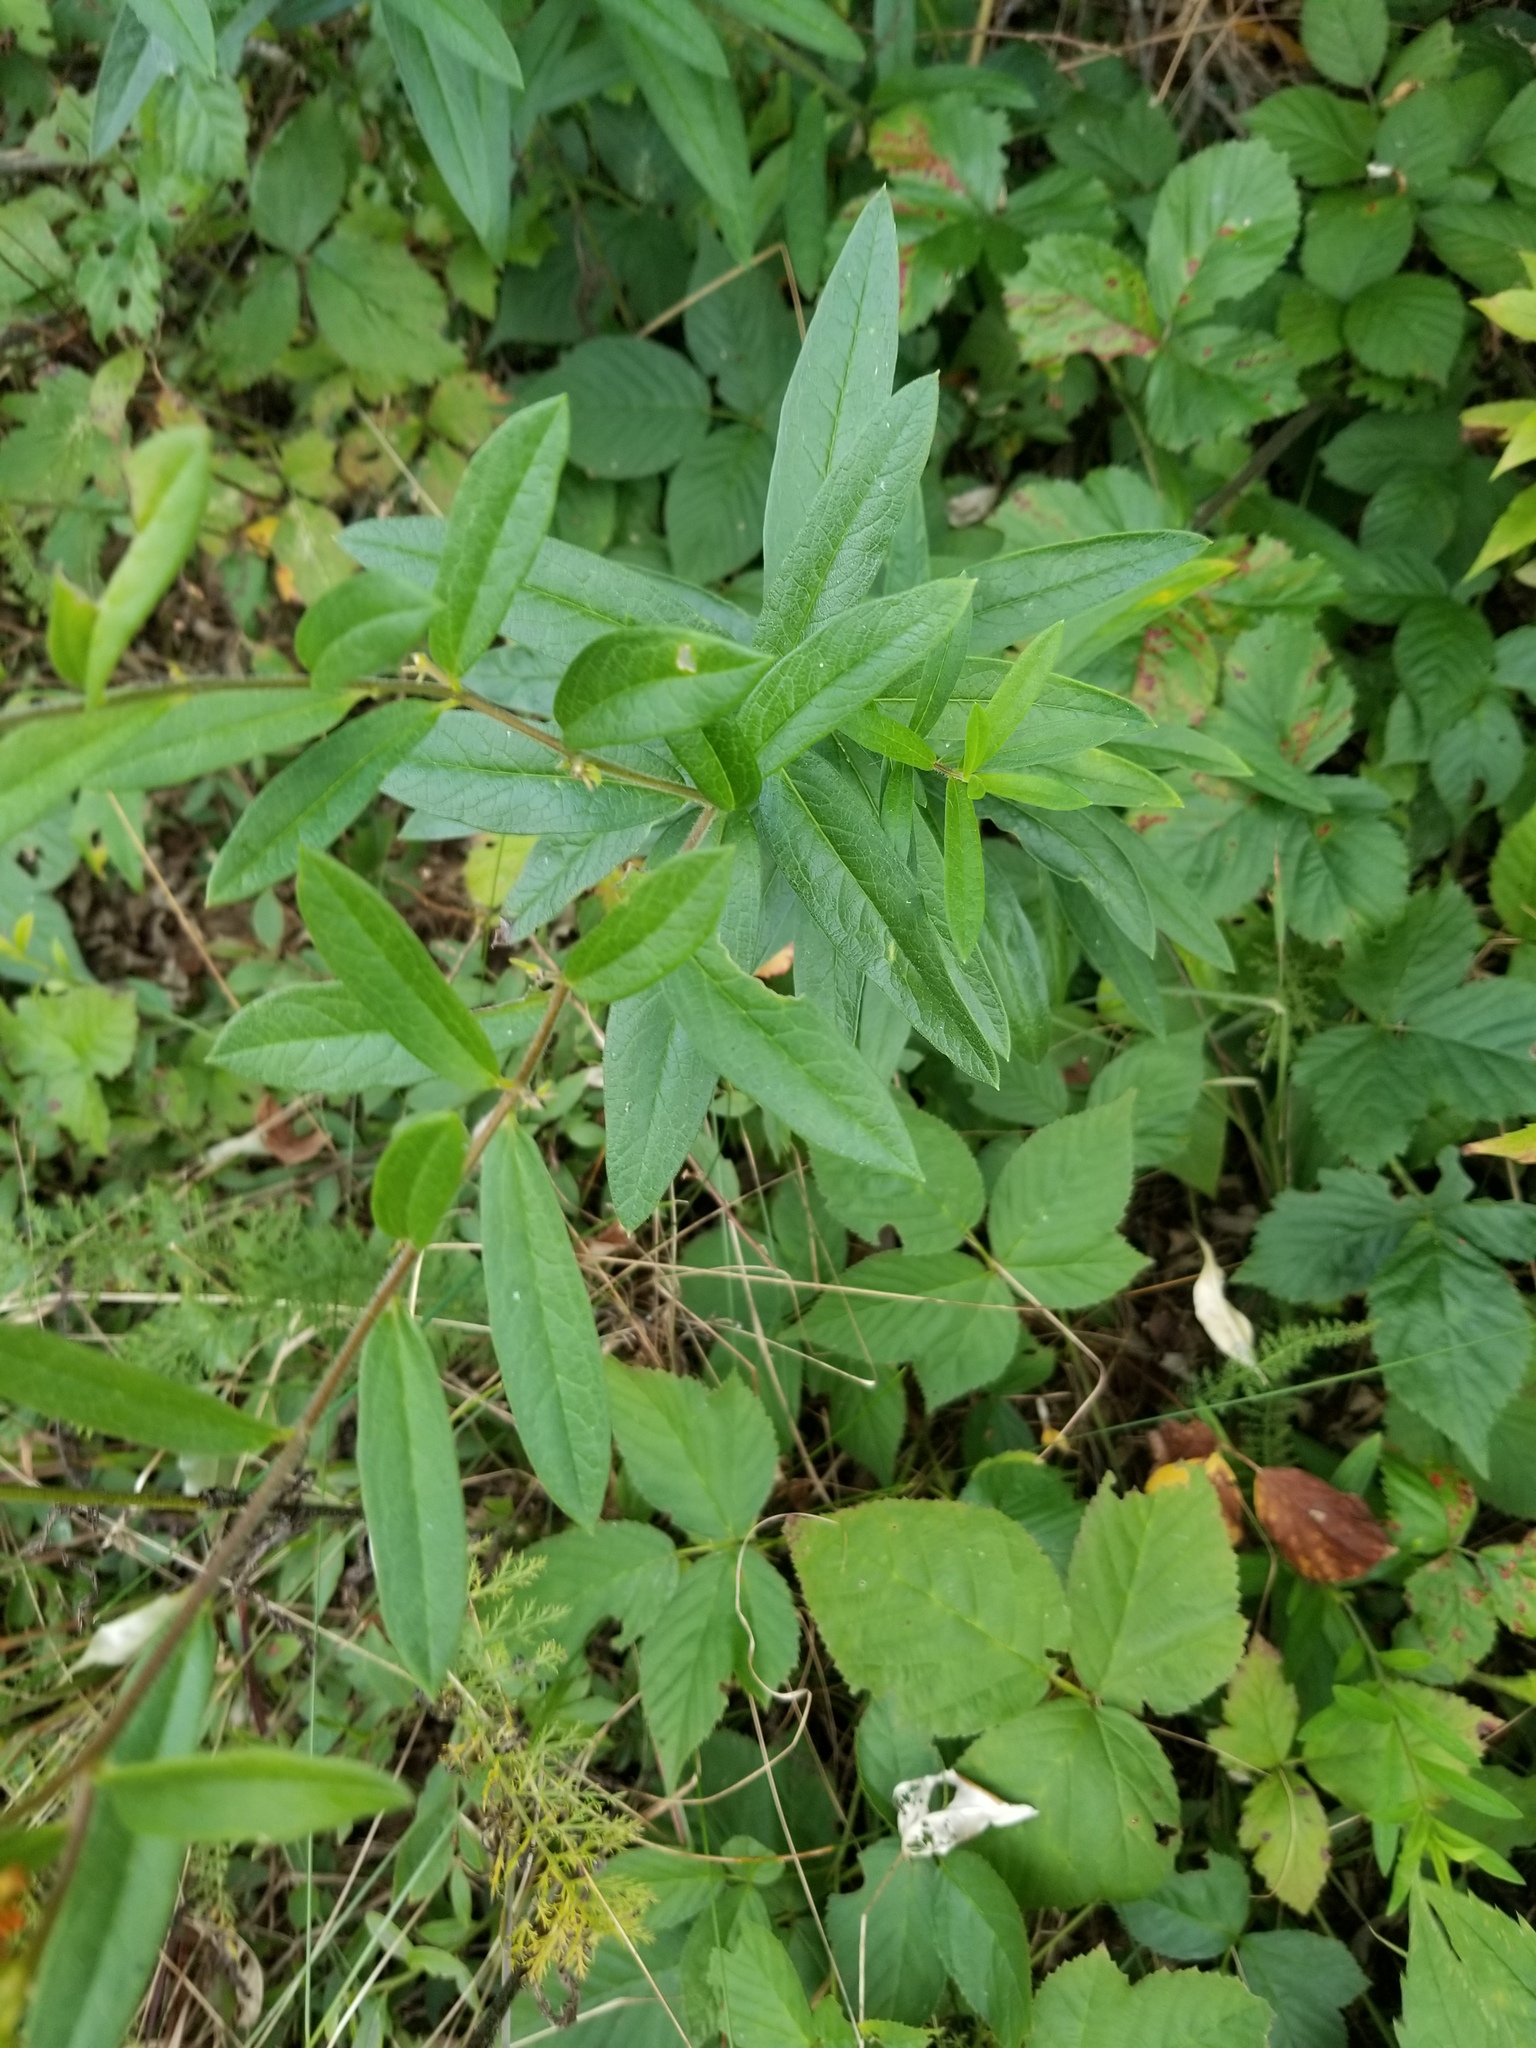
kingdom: Plantae
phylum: Tracheophyta
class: Magnoliopsida
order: Gentianales
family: Apocynaceae
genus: Asclepias
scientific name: Asclepias tuberosa
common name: Butterfly milkweed
